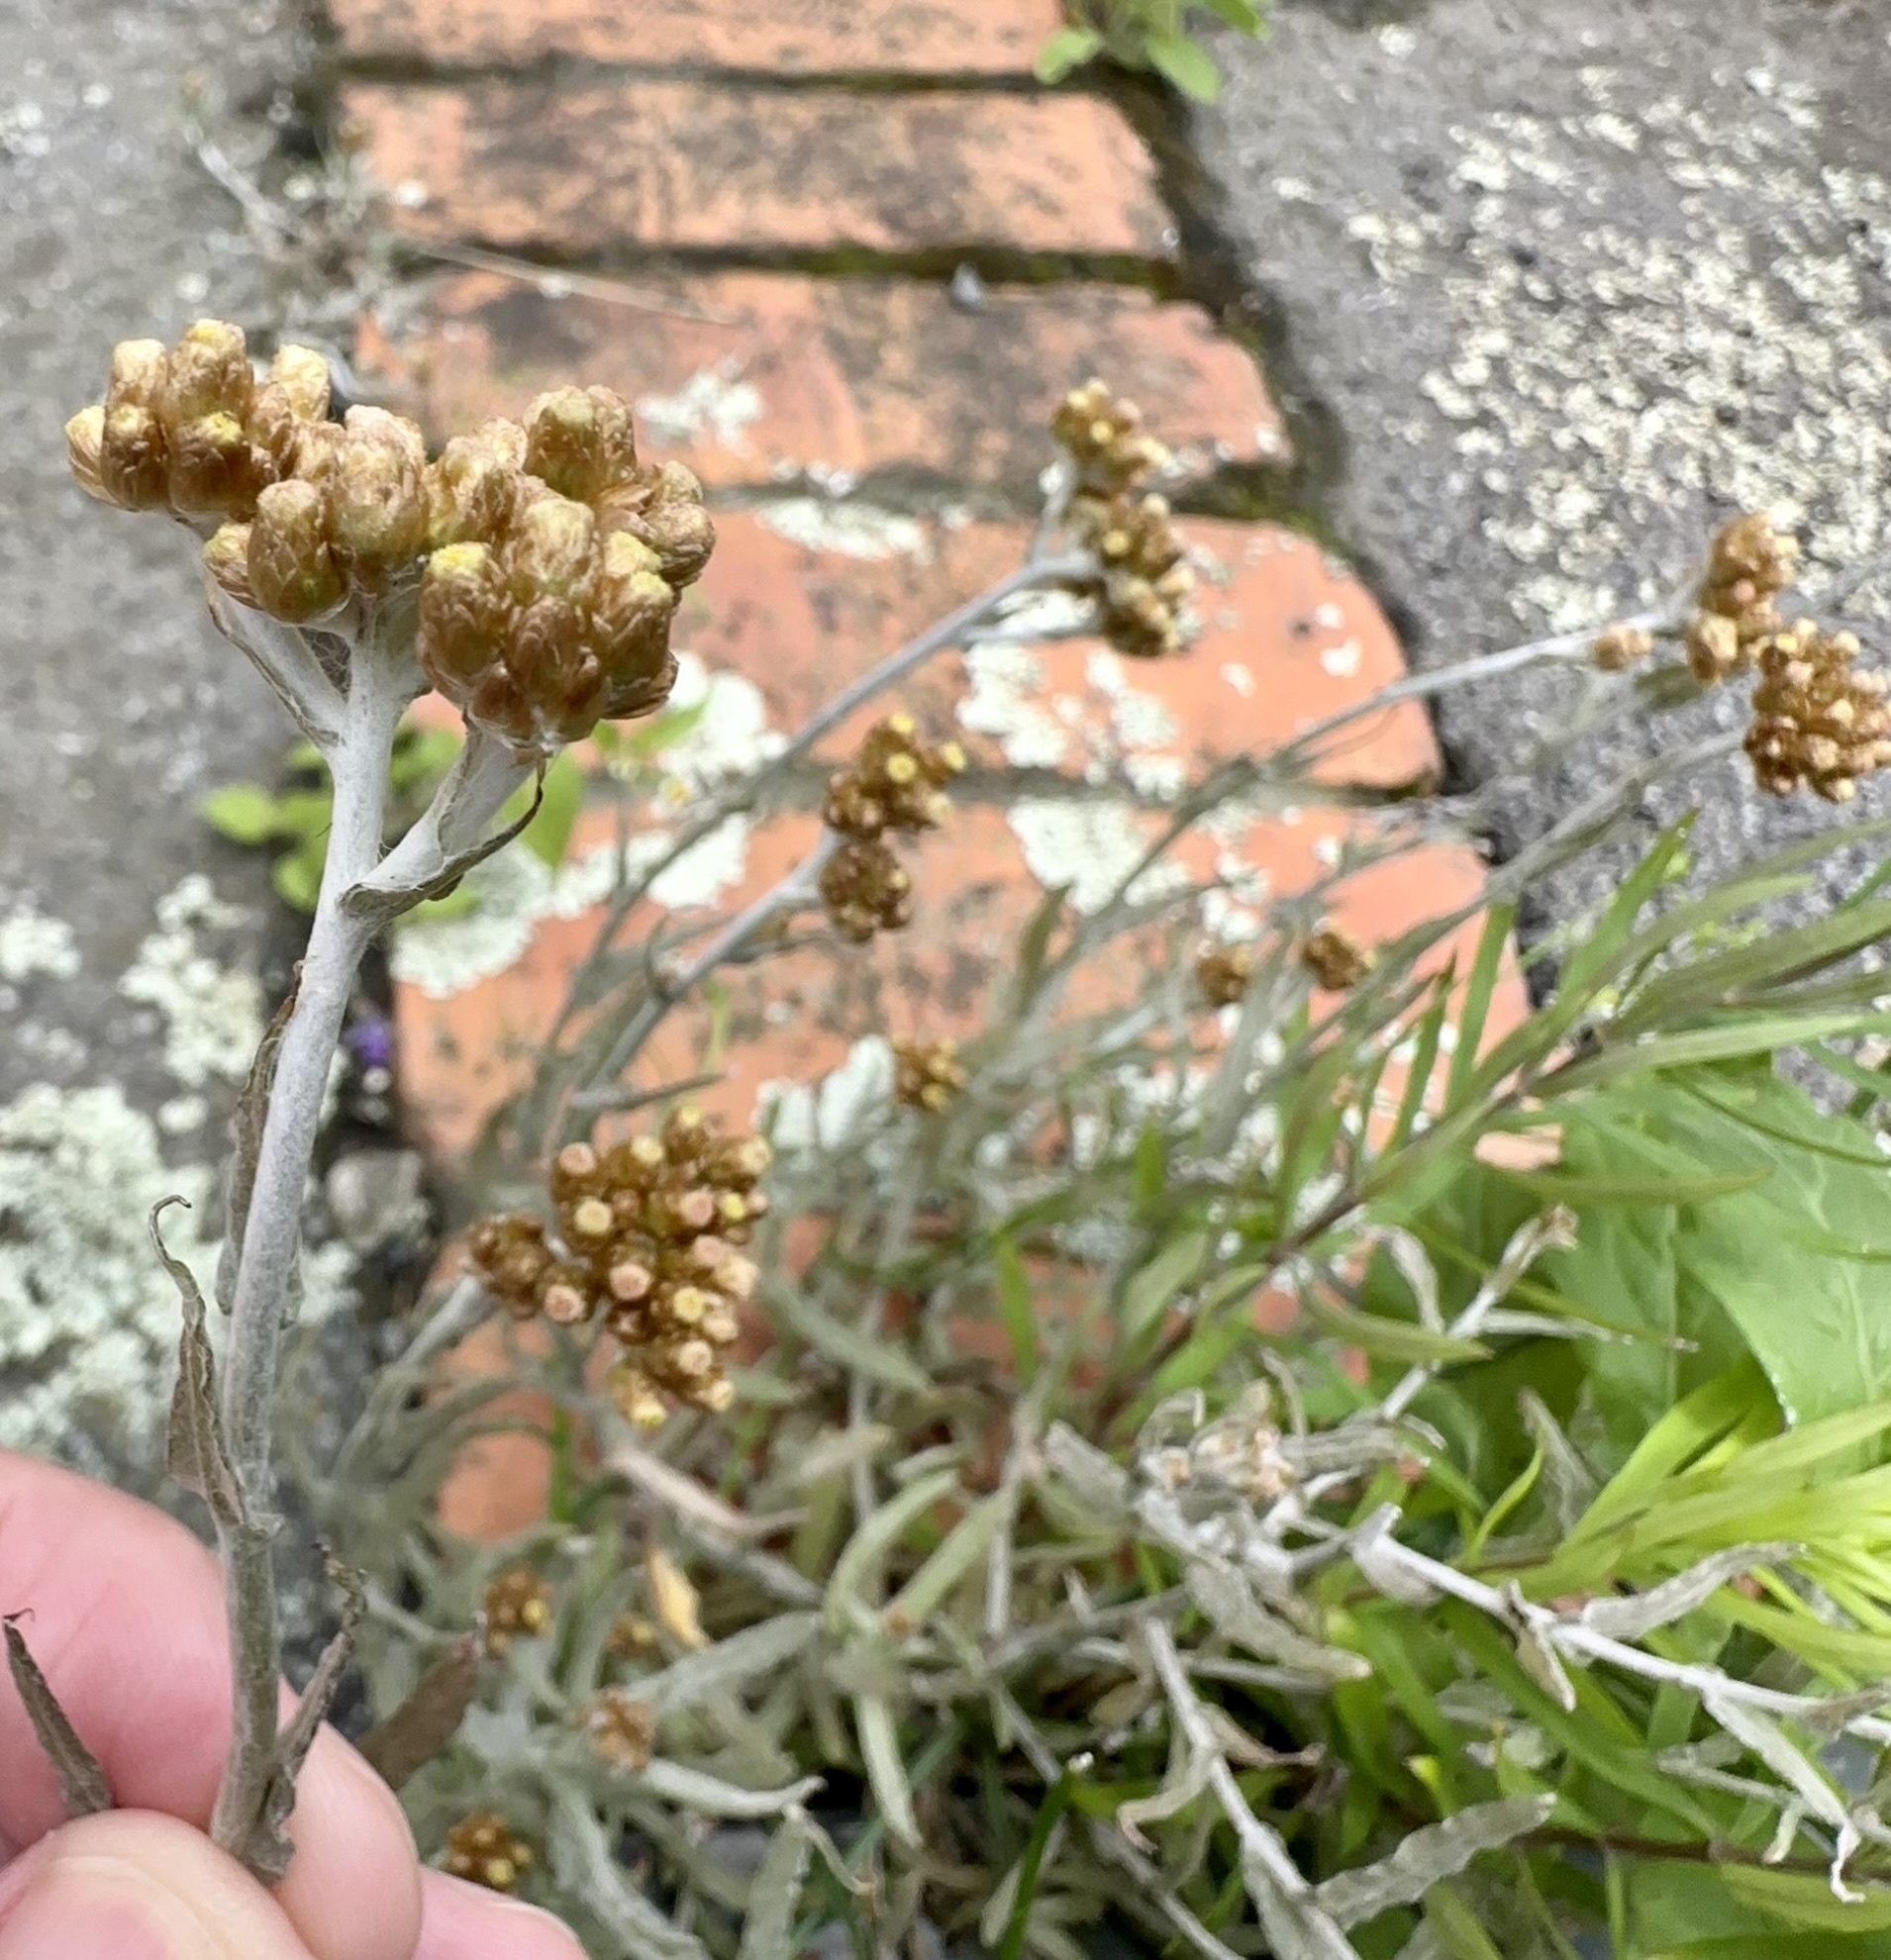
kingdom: Plantae
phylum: Tracheophyta
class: Magnoliopsida
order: Asterales
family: Asteraceae
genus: Pseudognaphalium
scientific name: Pseudognaphalium
